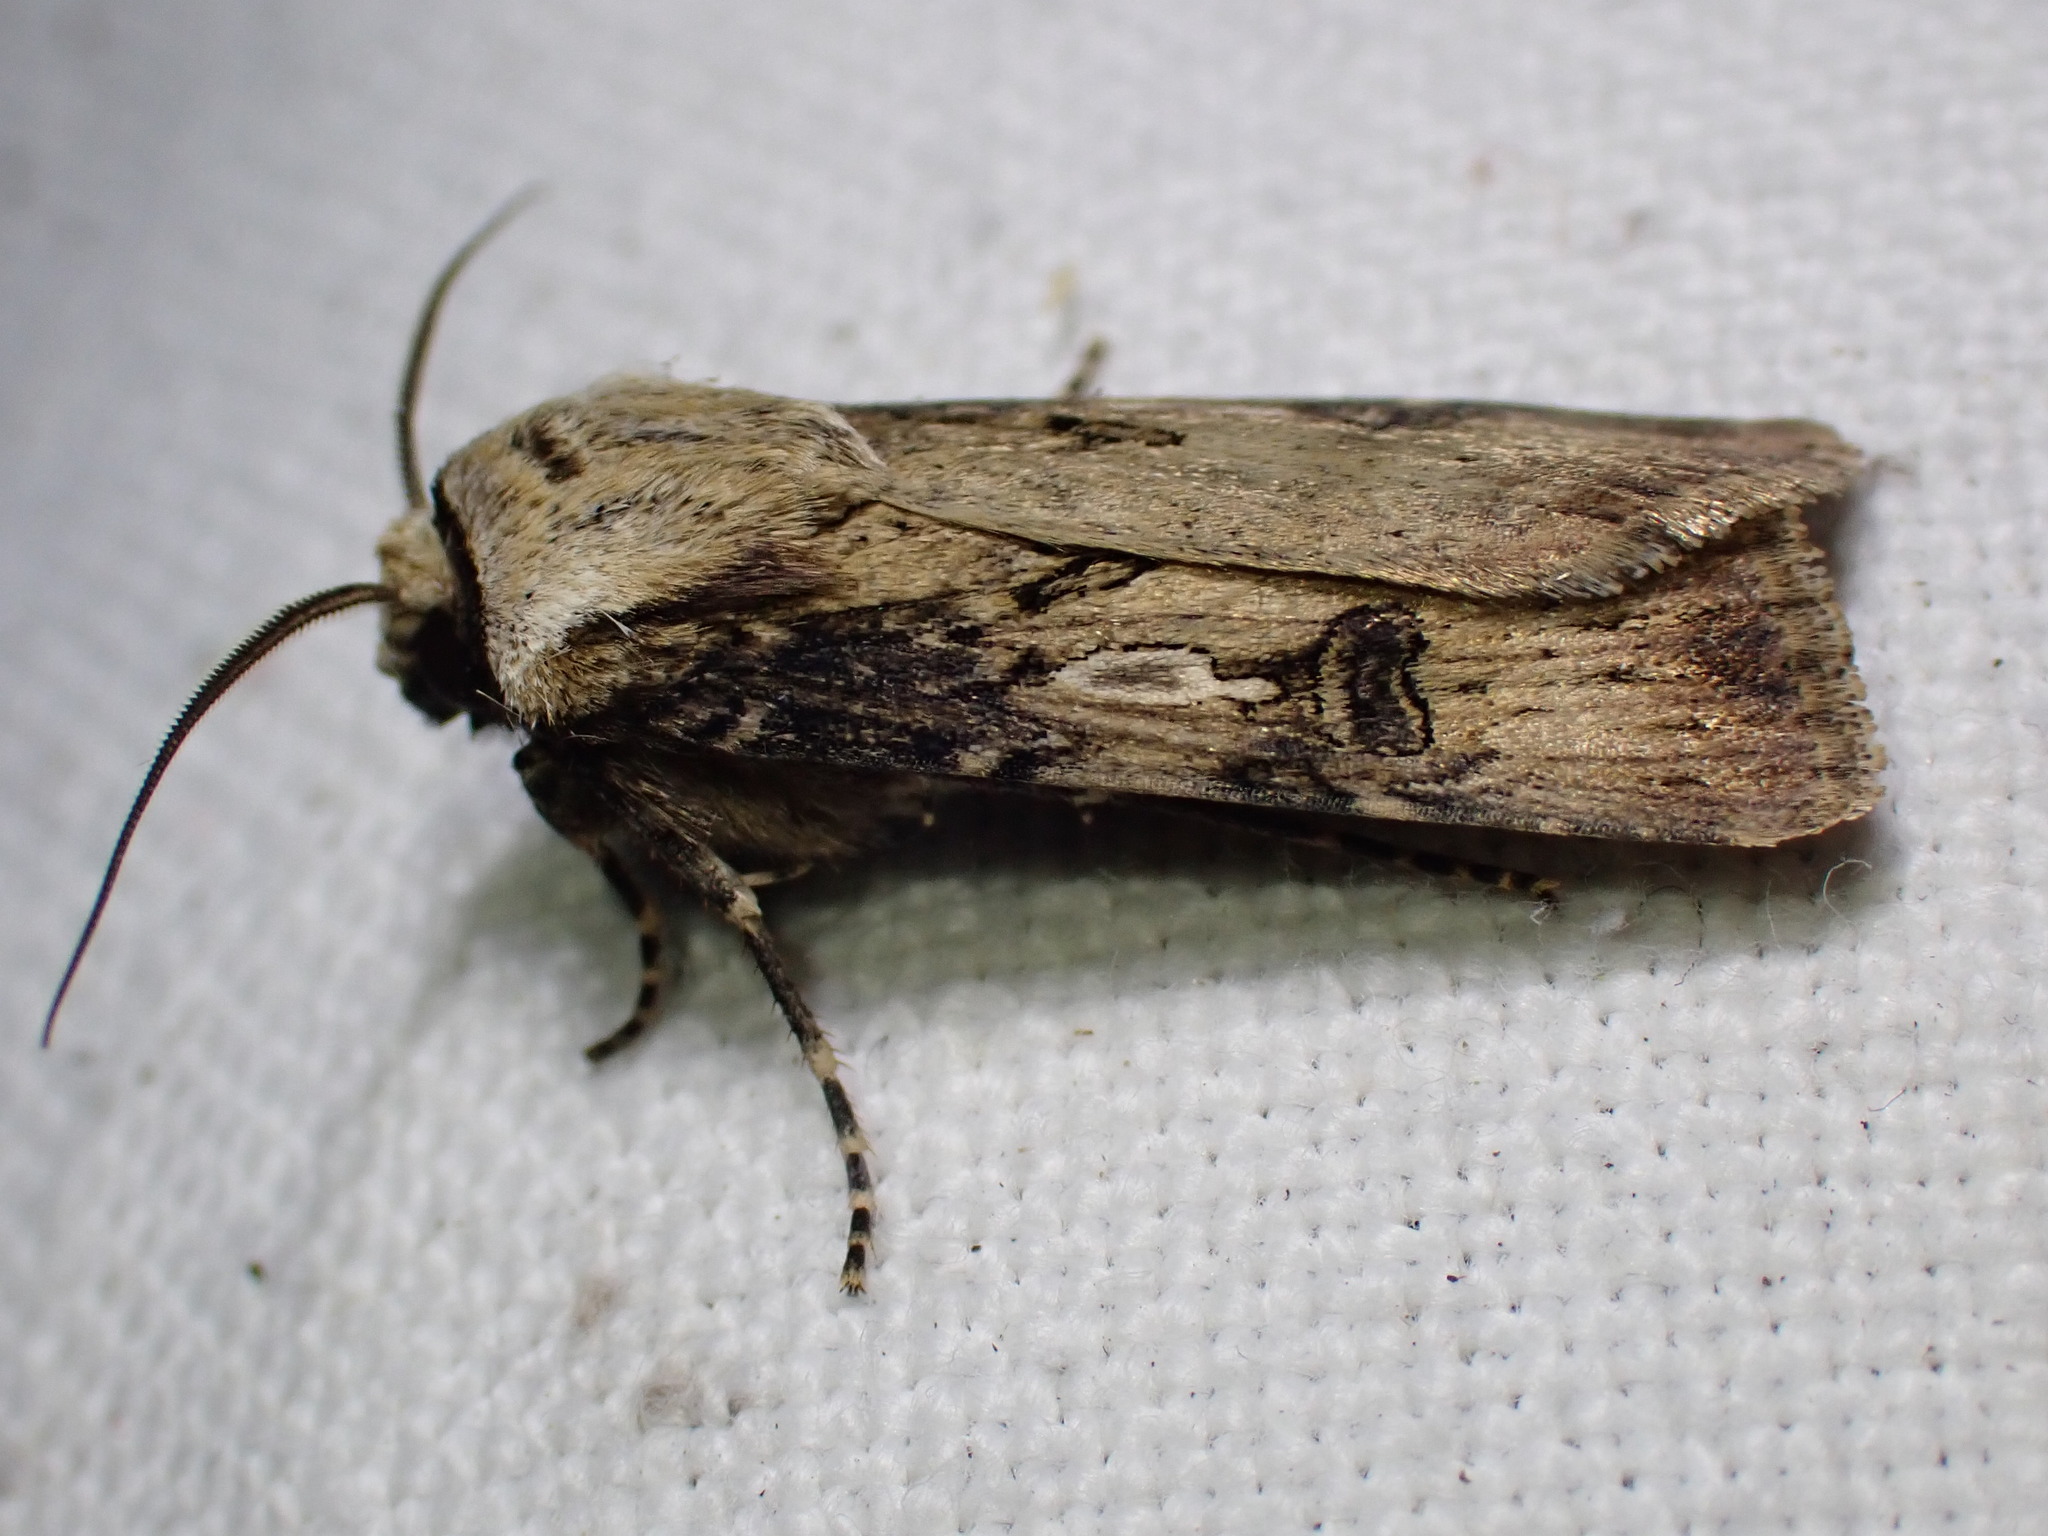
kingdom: Animalia
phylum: Arthropoda
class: Insecta
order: Lepidoptera
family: Noctuidae
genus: Agrotis
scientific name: Agrotis puta
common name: Shuttle-shaped dart
